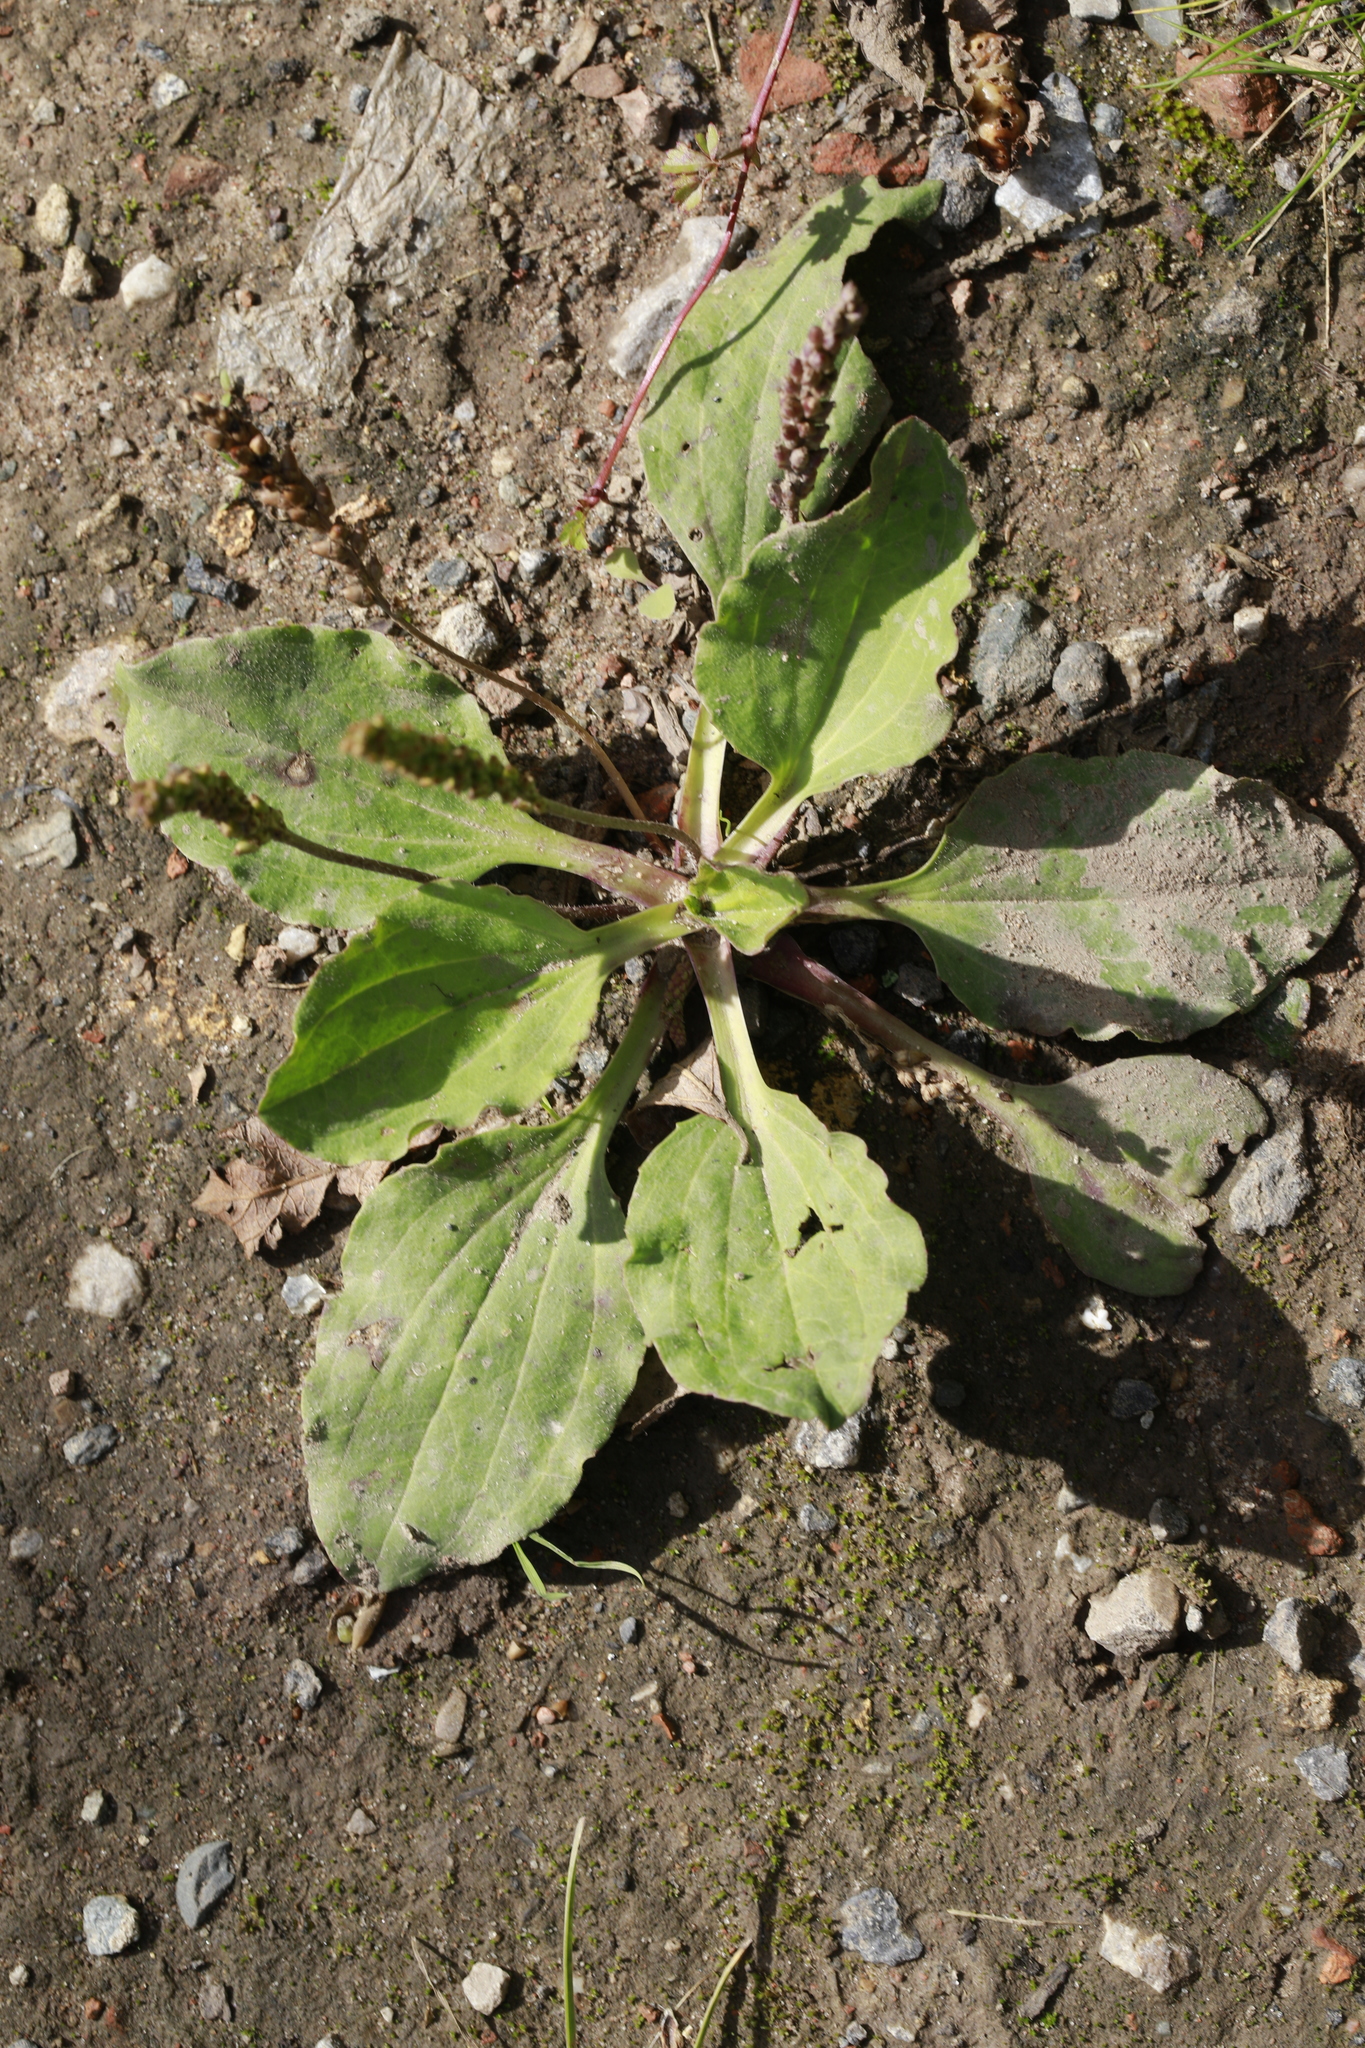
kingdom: Plantae
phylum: Tracheophyta
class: Magnoliopsida
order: Lamiales
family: Plantaginaceae
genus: Plantago
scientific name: Plantago major
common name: Common plantain
